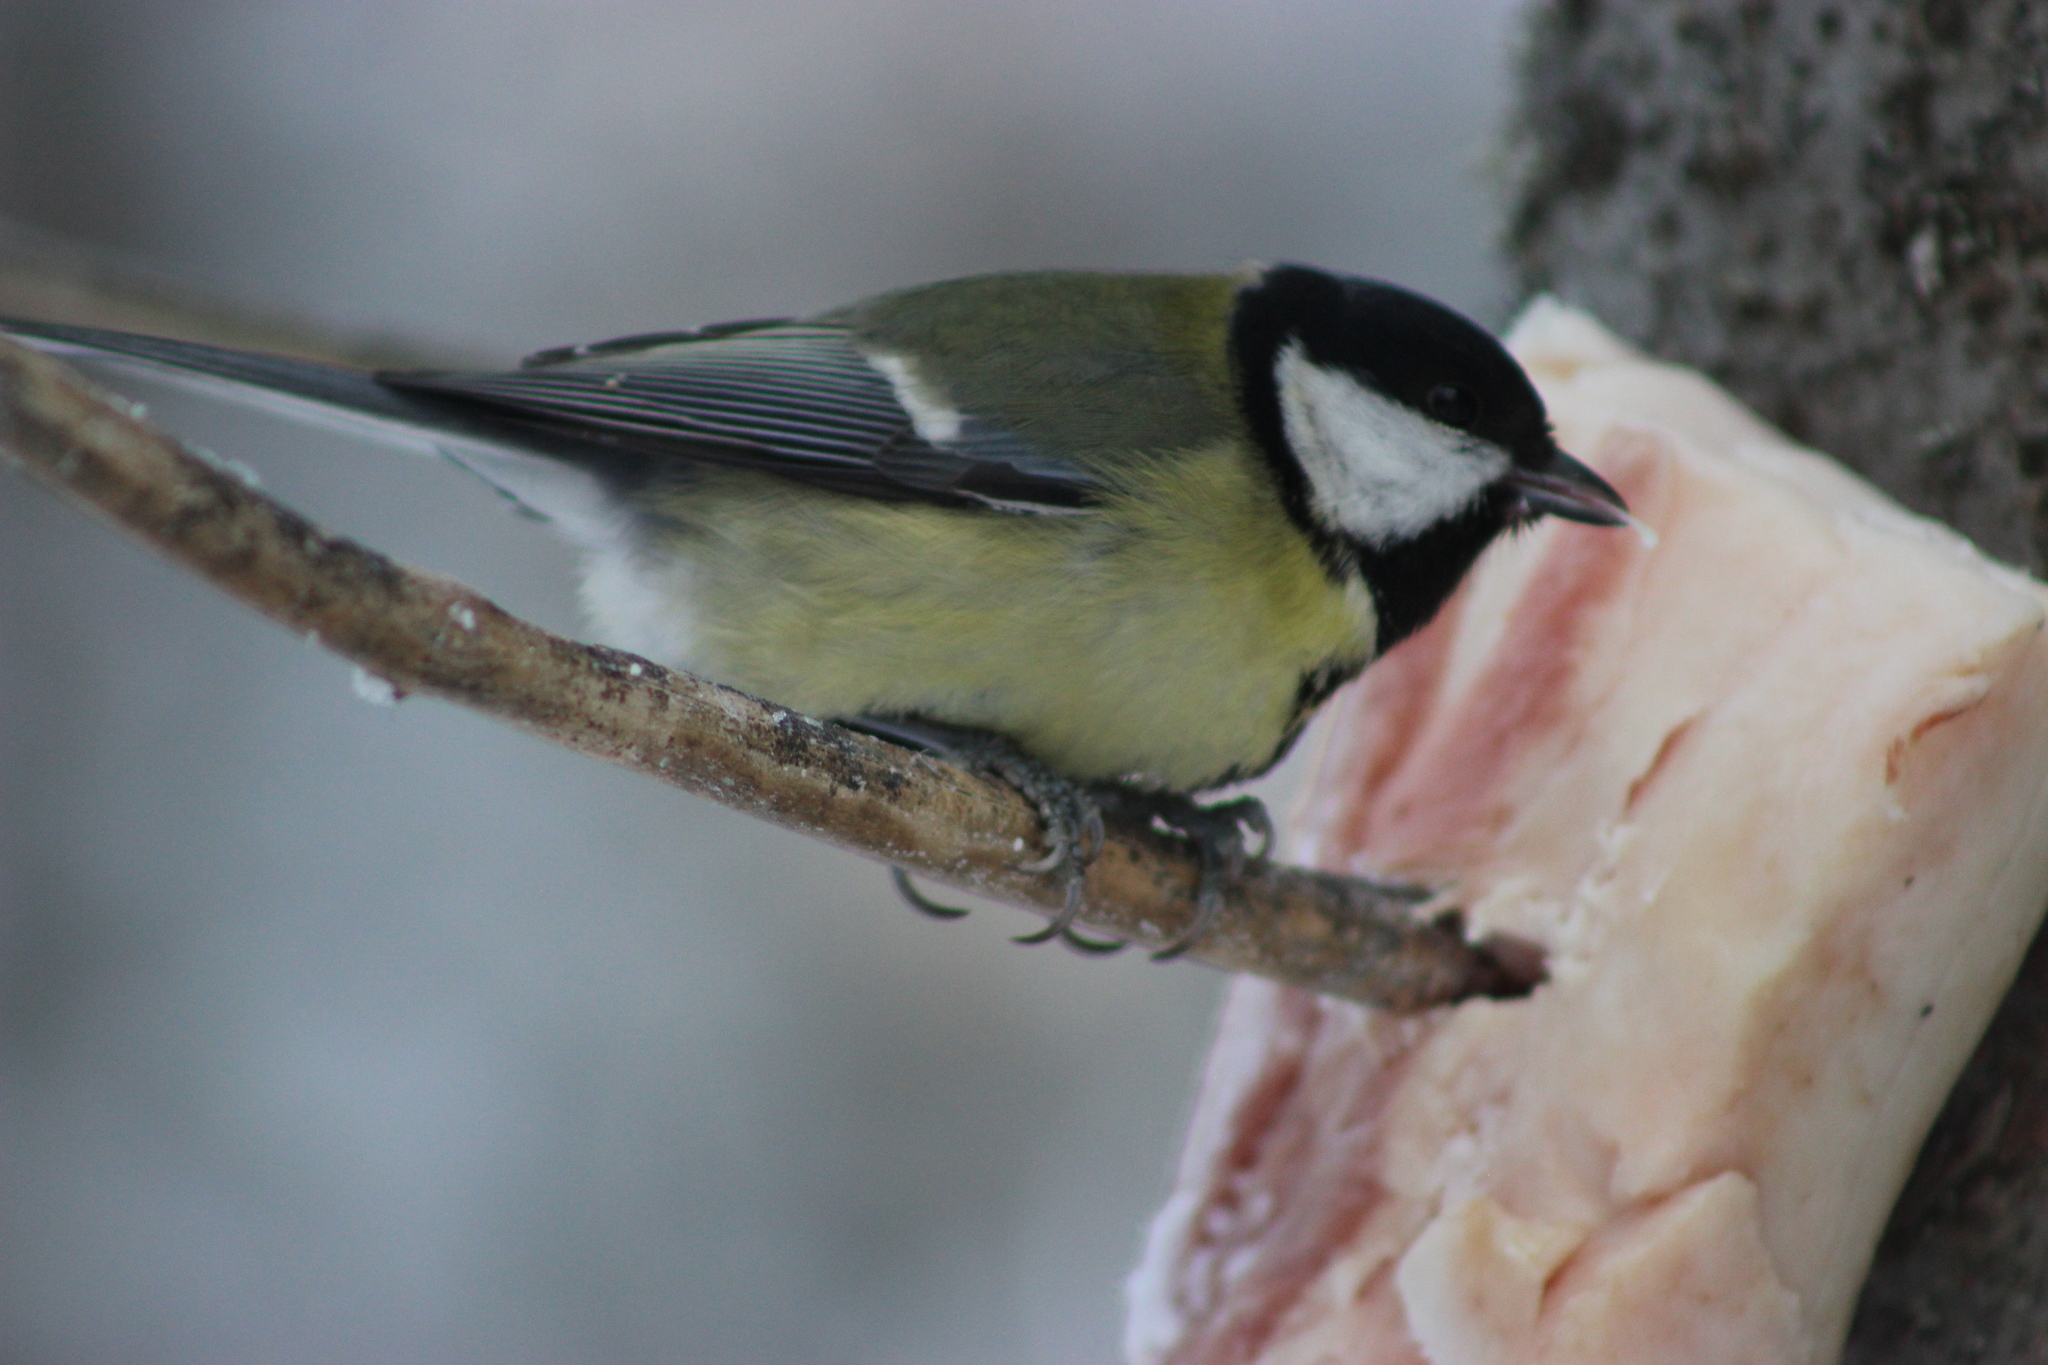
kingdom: Animalia
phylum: Chordata
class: Aves
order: Passeriformes
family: Paridae
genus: Parus
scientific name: Parus major
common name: Great tit
